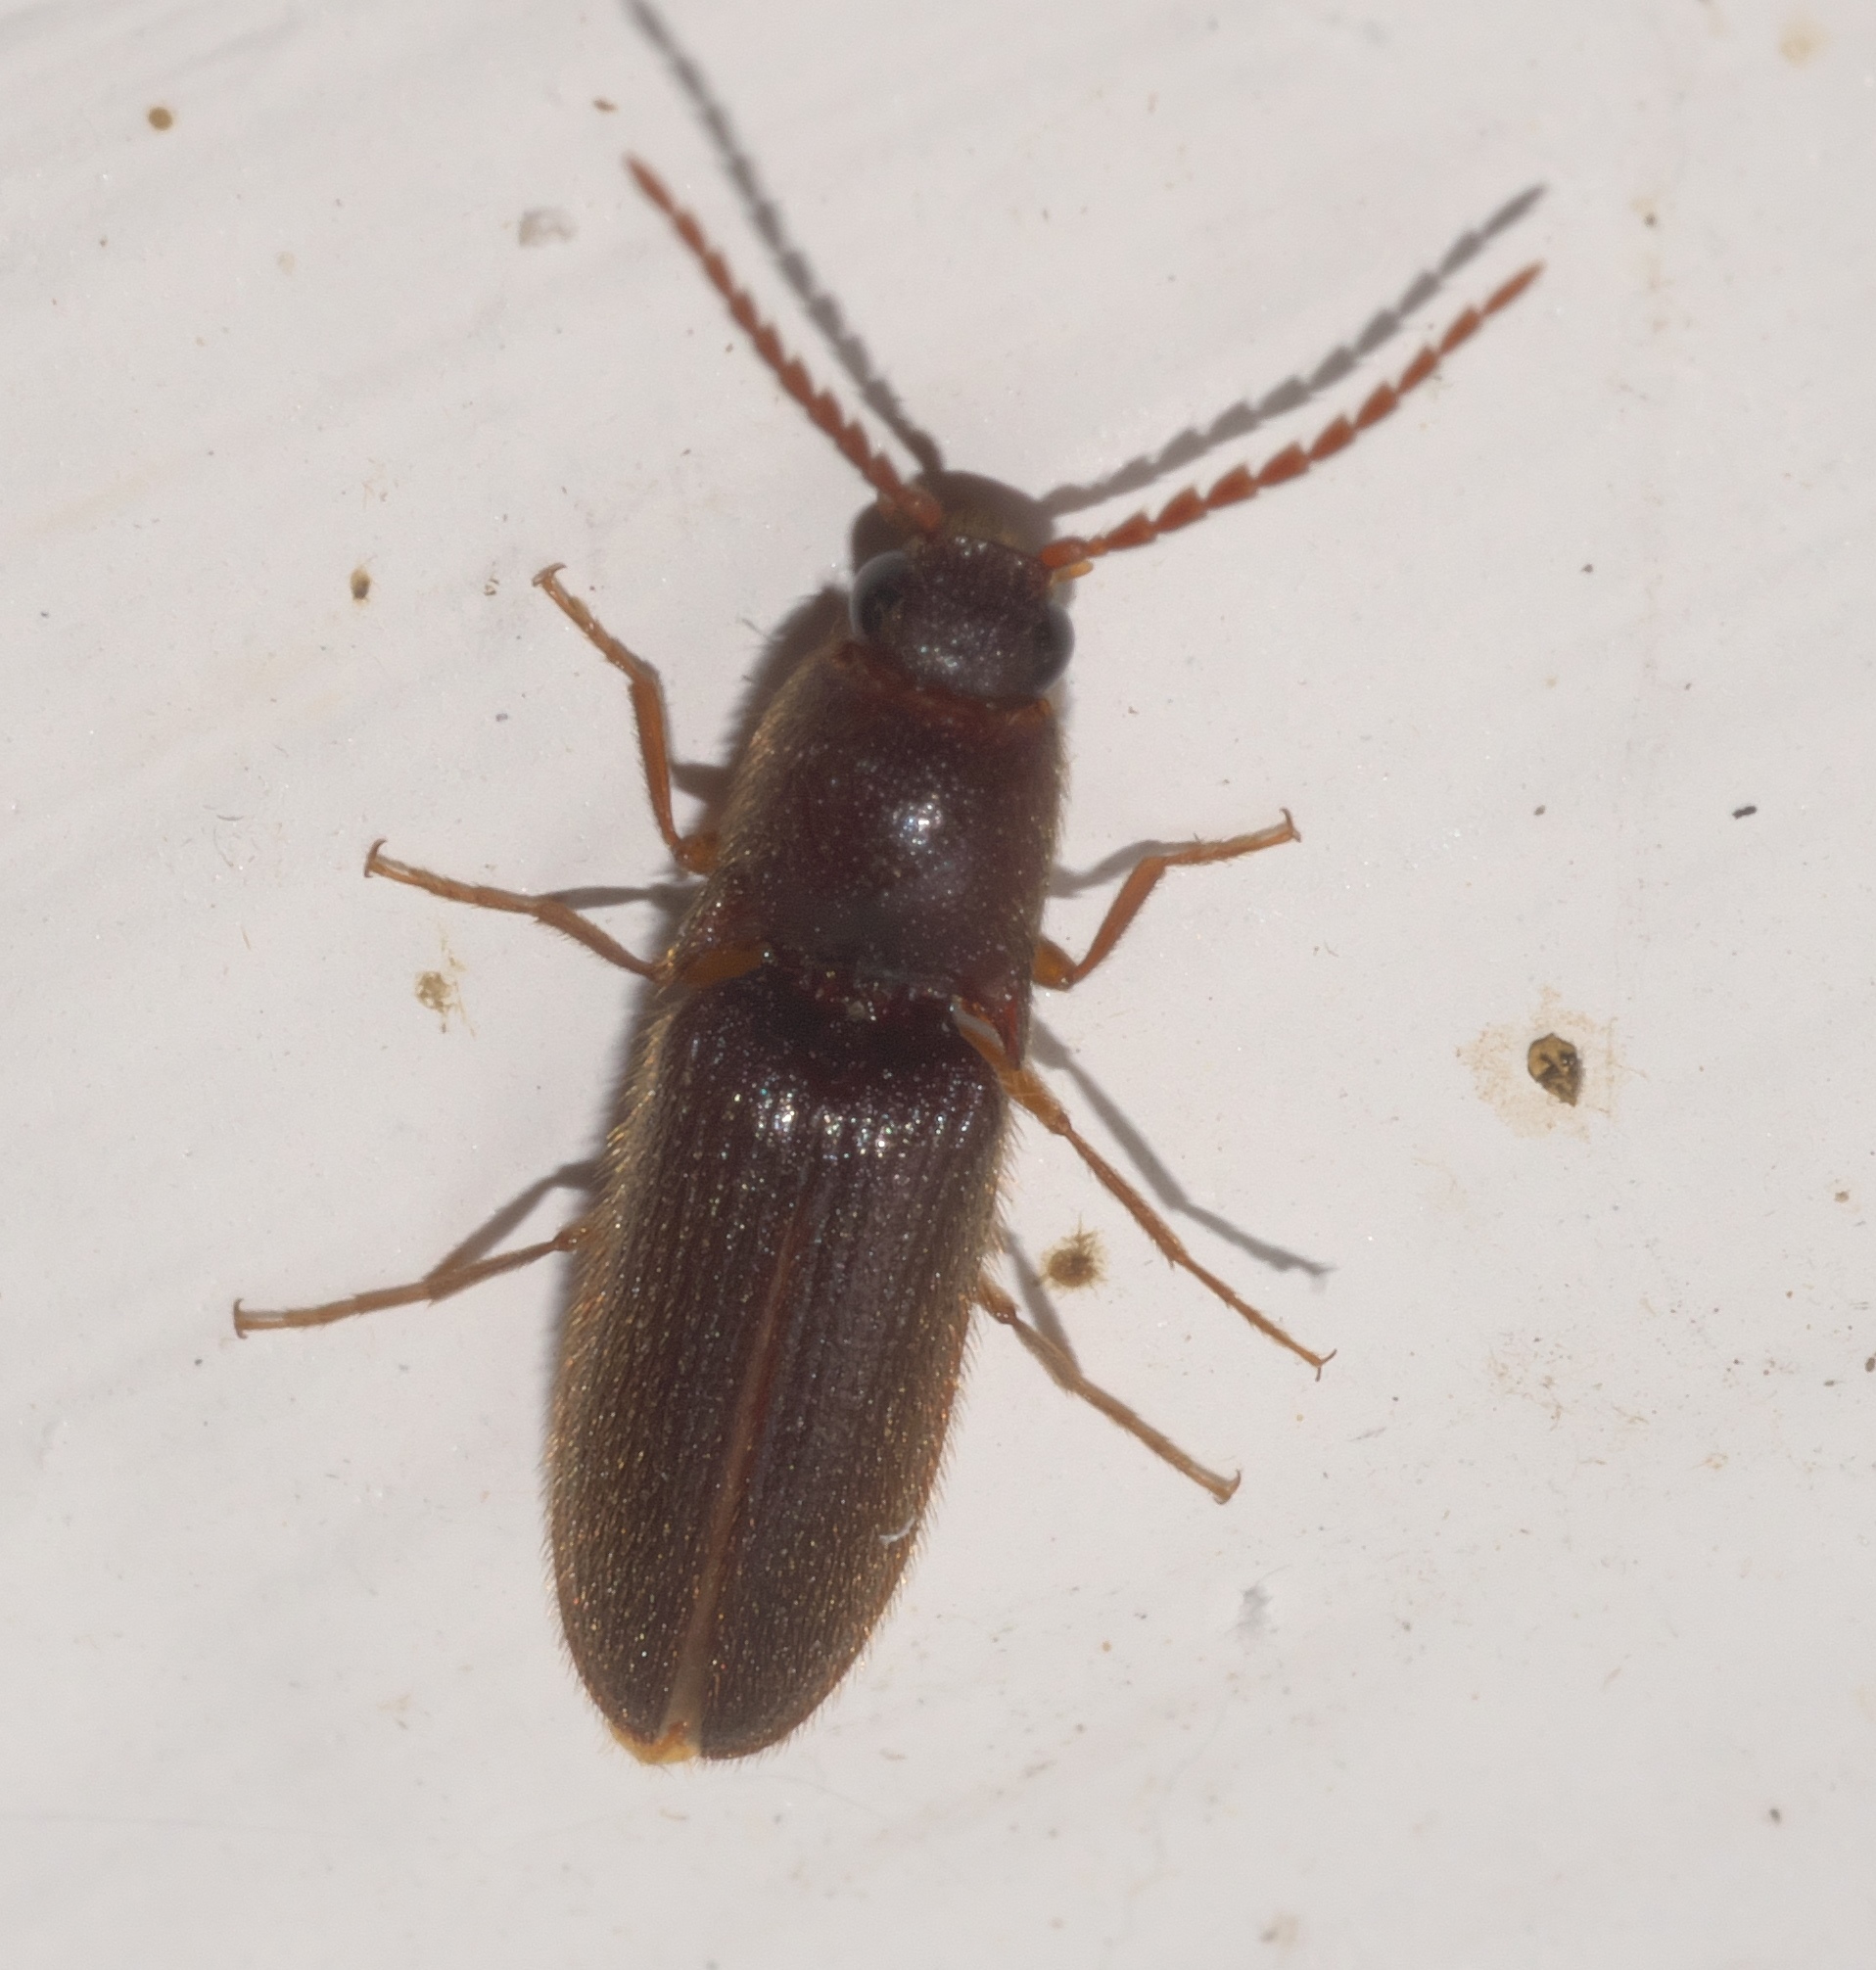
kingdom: Animalia
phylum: Arthropoda
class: Insecta
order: Coleoptera
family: Elateridae
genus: Dipropus
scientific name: Dipropus
